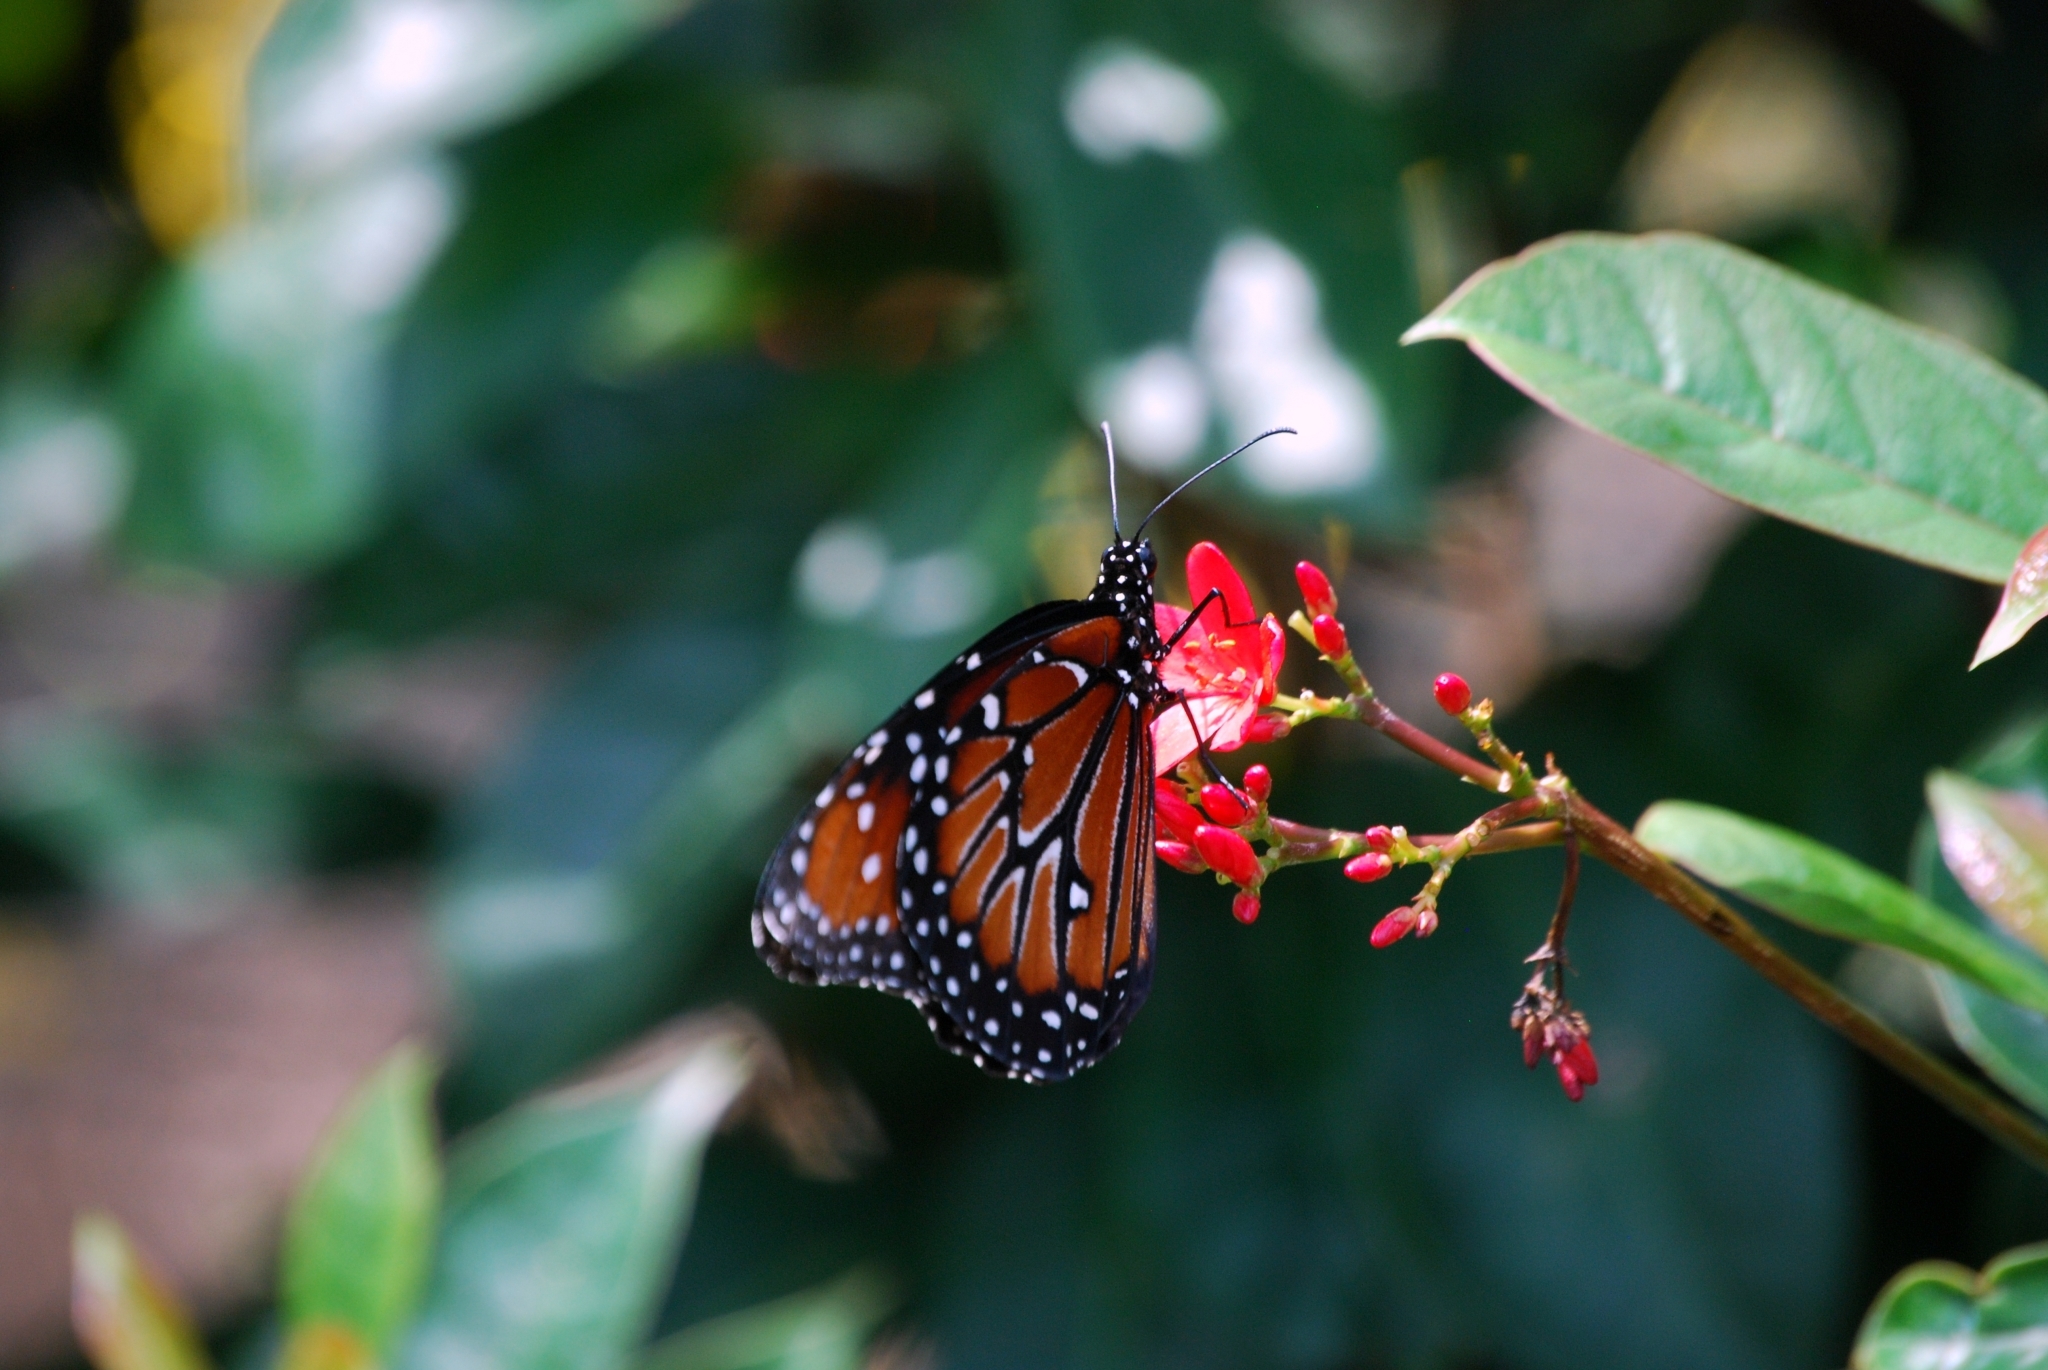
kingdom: Animalia
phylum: Arthropoda
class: Insecta
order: Lepidoptera
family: Nymphalidae
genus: Danaus
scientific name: Danaus gilippus
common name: Queen
